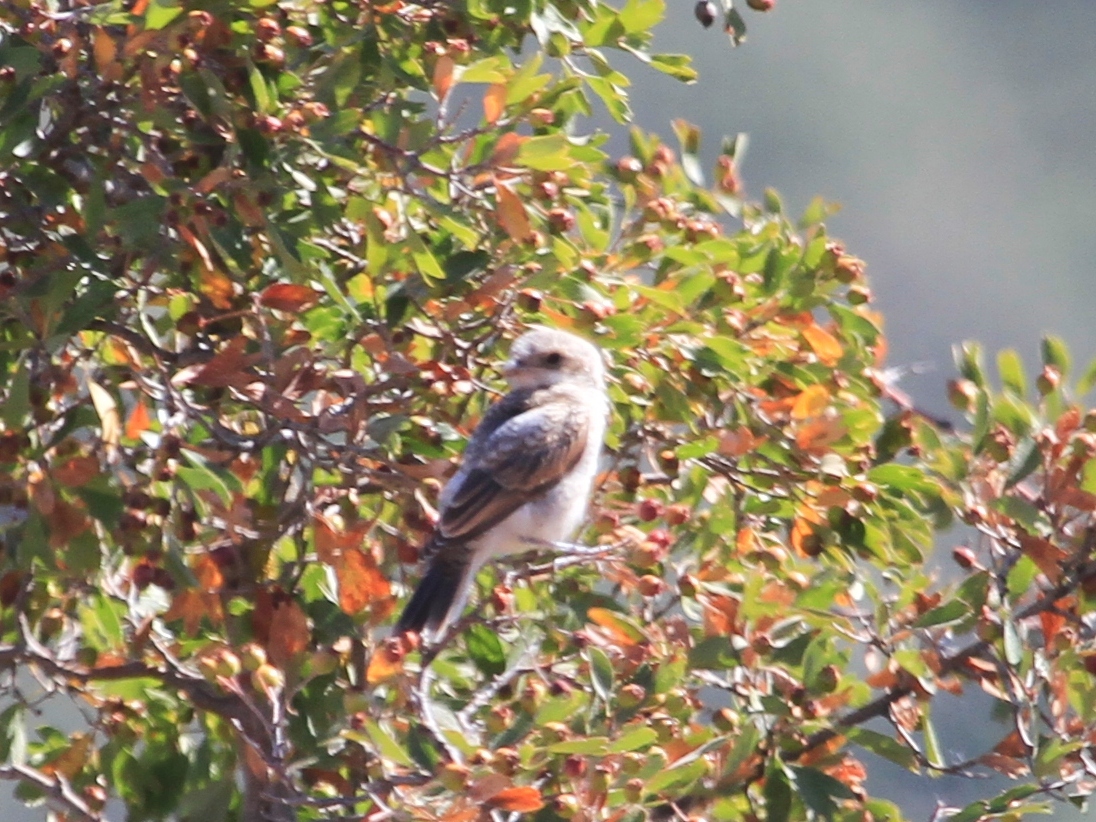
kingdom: Animalia
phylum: Chordata
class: Aves
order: Passeriformes
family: Laniidae
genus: Lanius
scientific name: Lanius senator
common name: Woodchat shrike
